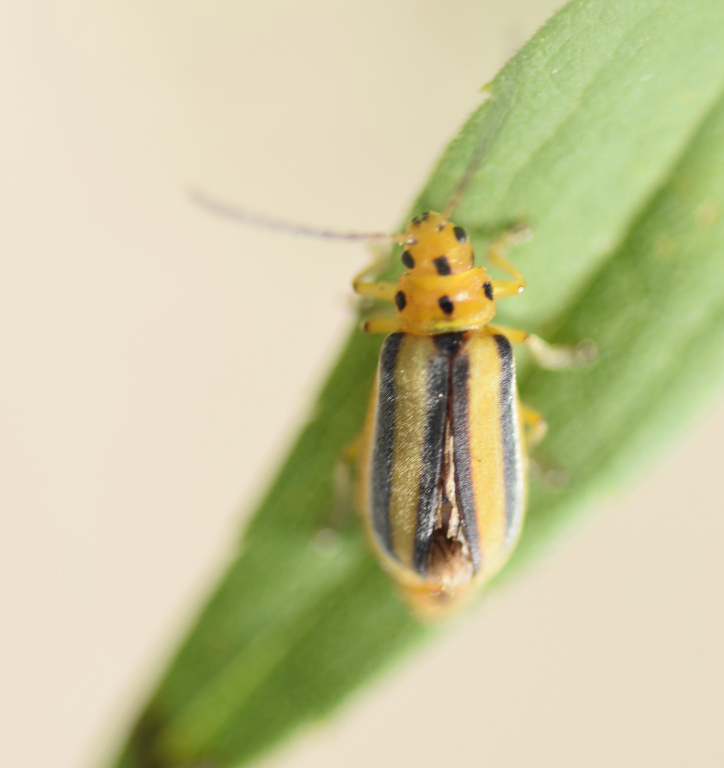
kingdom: Animalia
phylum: Arthropoda
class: Insecta
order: Coleoptera
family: Chrysomelidae
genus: Trirhabda
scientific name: Trirhabda canadensis
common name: Goldenrod leaf beetle
